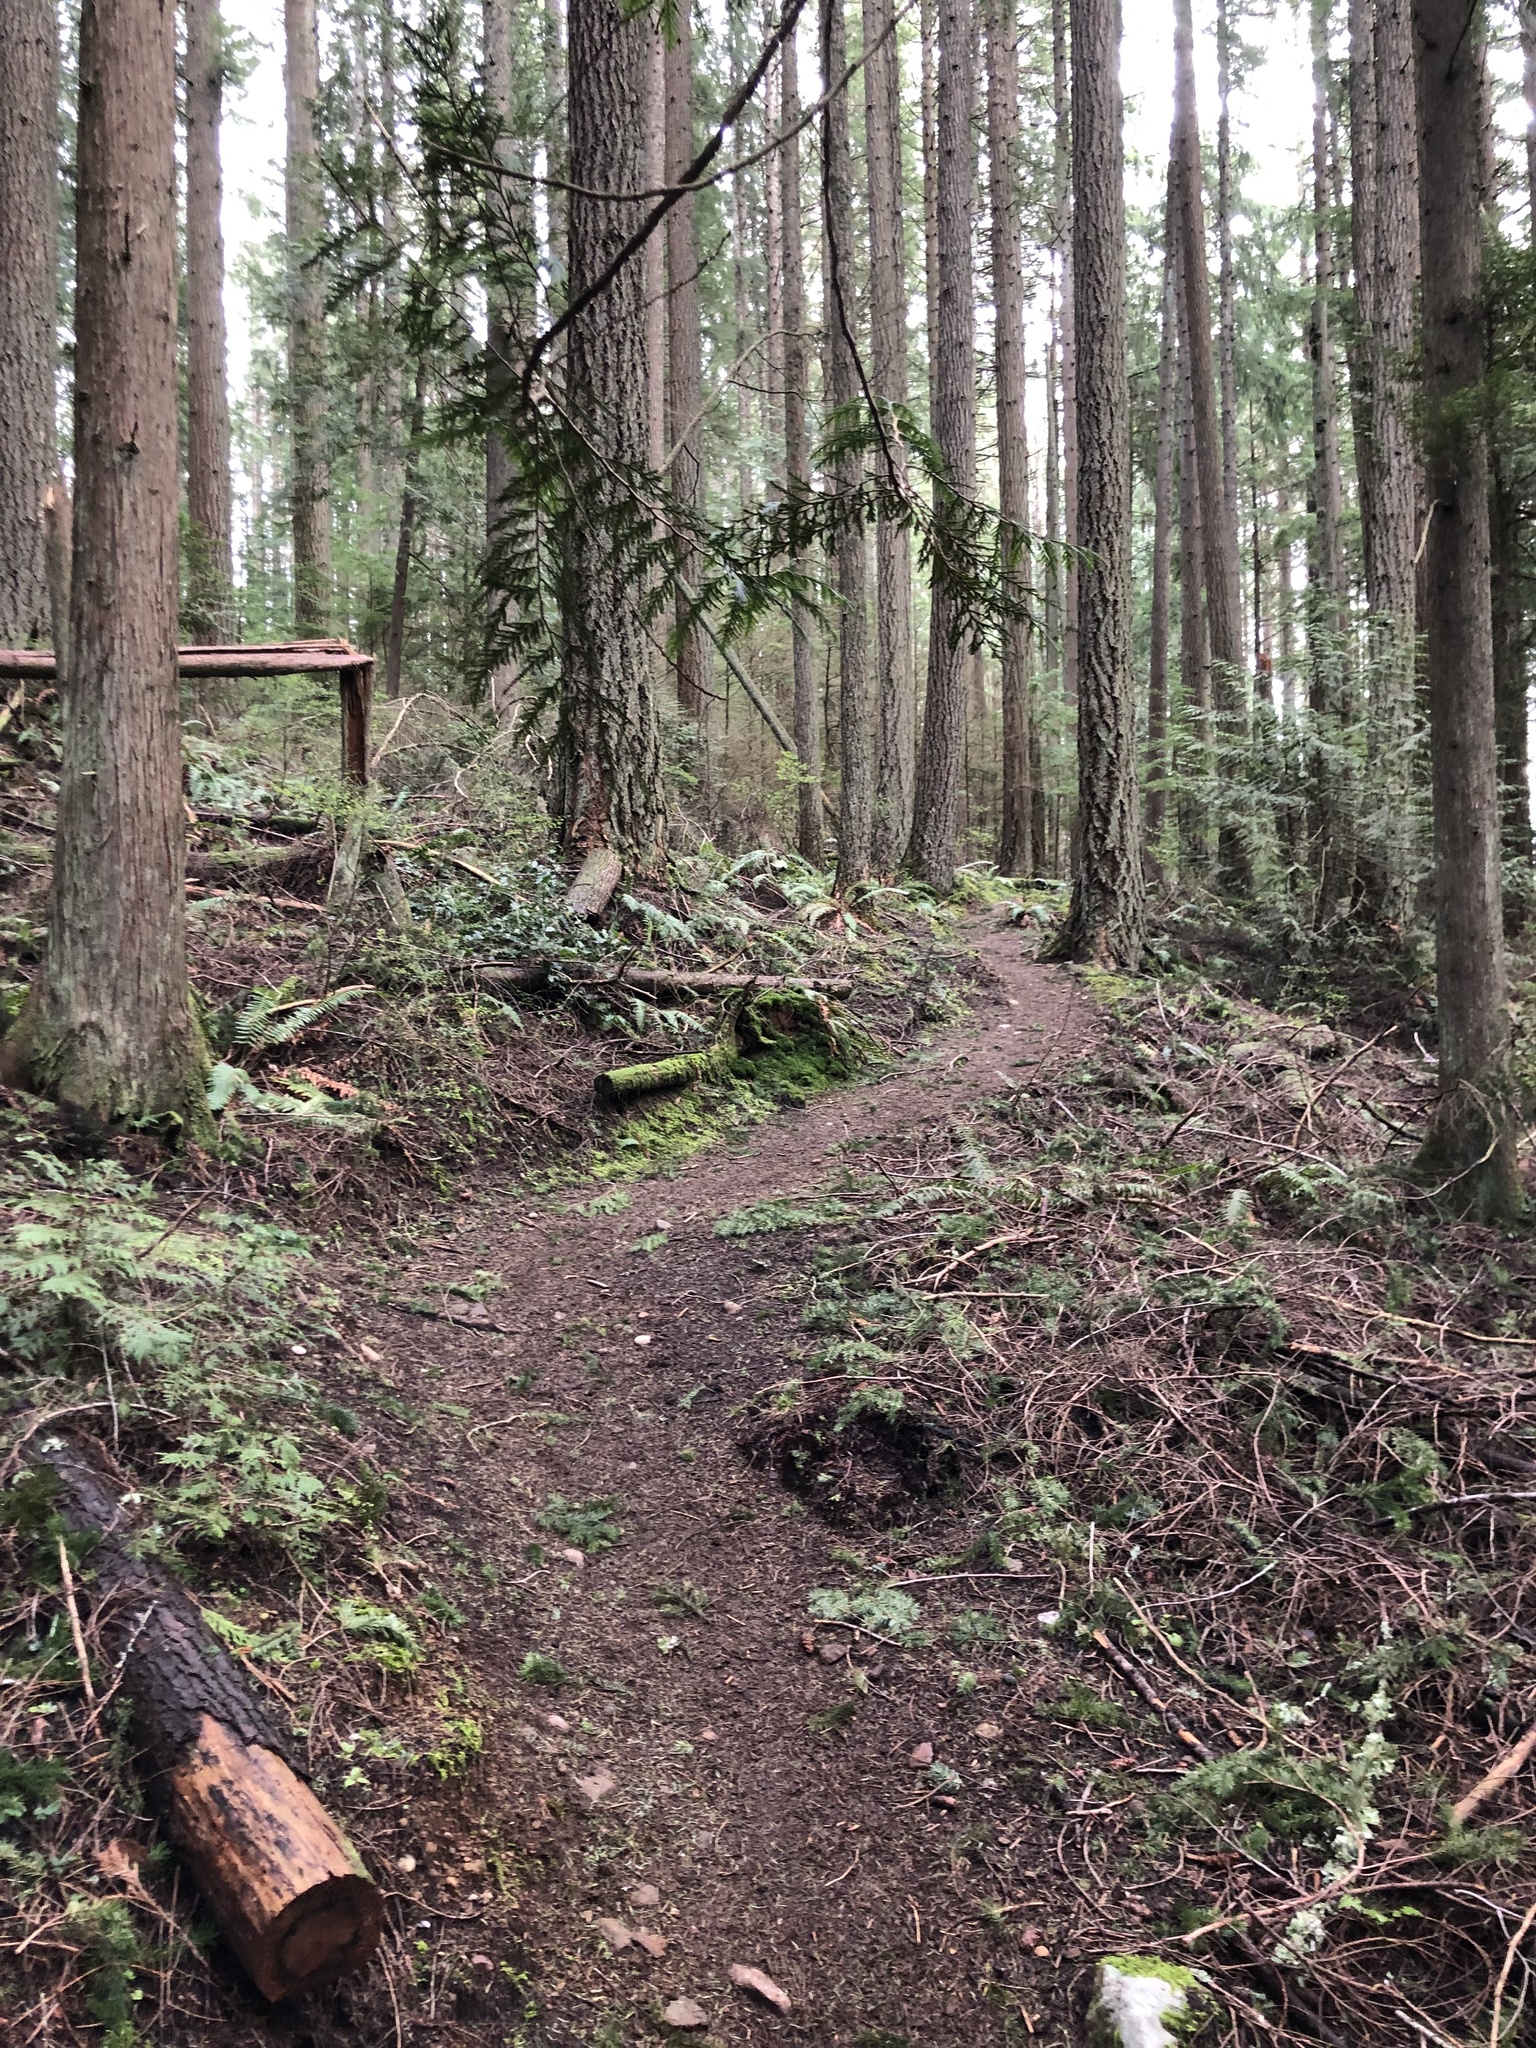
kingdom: Plantae
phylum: Tracheophyta
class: Pinopsida
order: Pinales
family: Pinaceae
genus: Pseudotsuga
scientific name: Pseudotsuga menziesii
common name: Douglas fir
